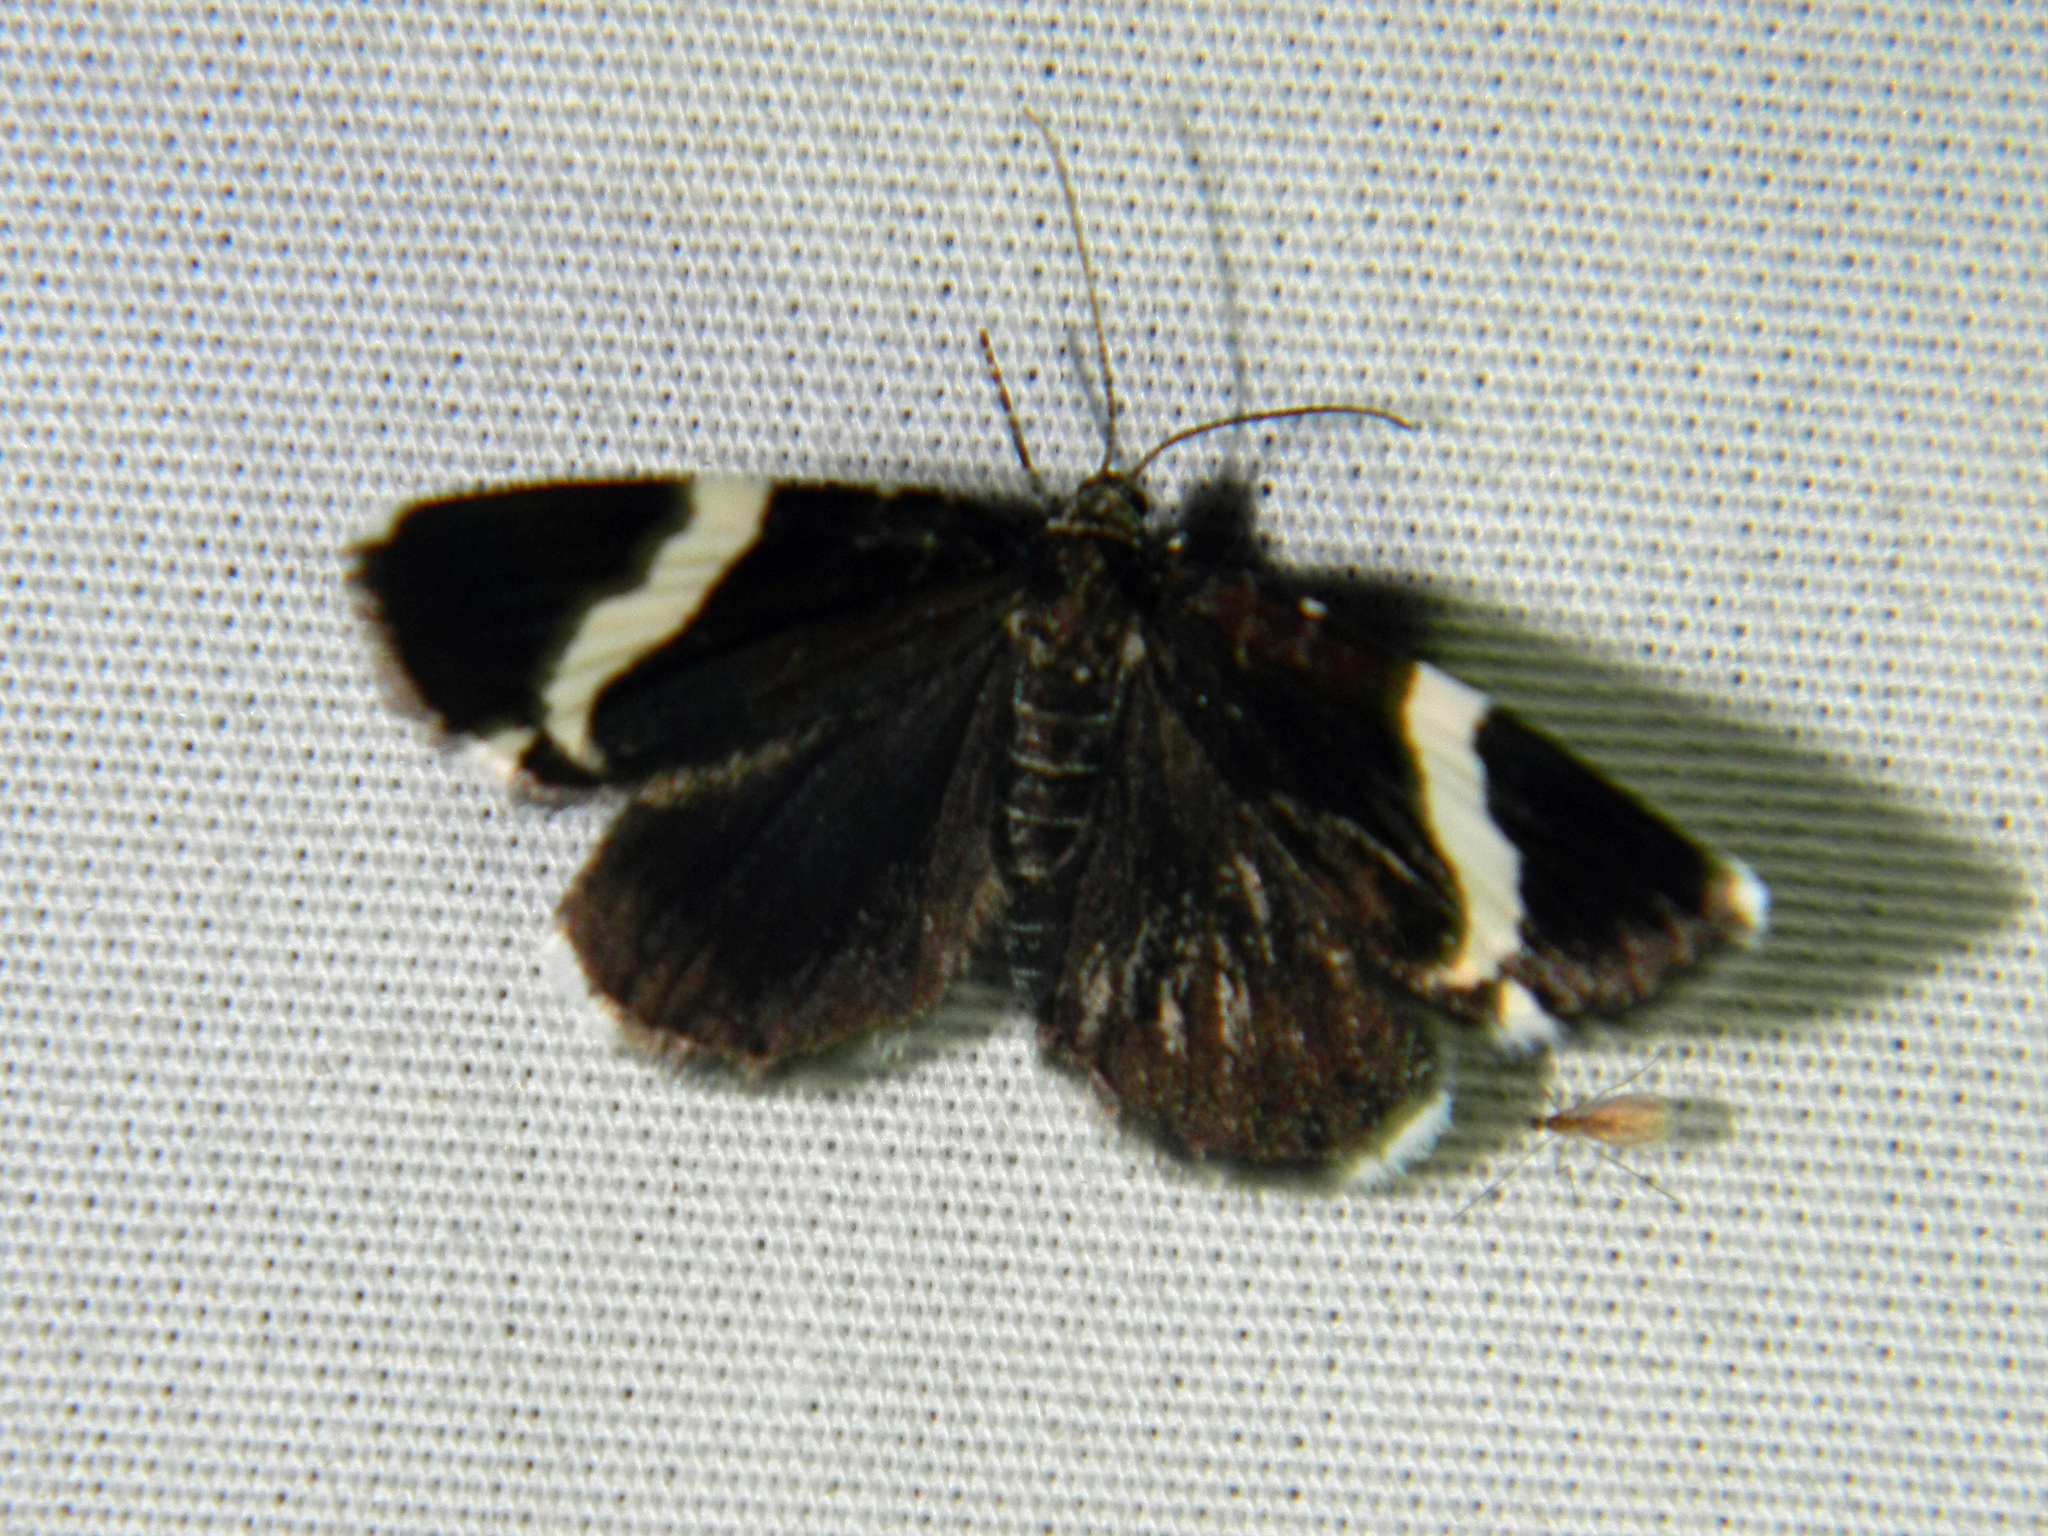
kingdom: Animalia
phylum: Arthropoda
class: Insecta
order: Lepidoptera
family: Geometridae
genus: Trichodezia
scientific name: Trichodezia albovittata
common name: White striped black
